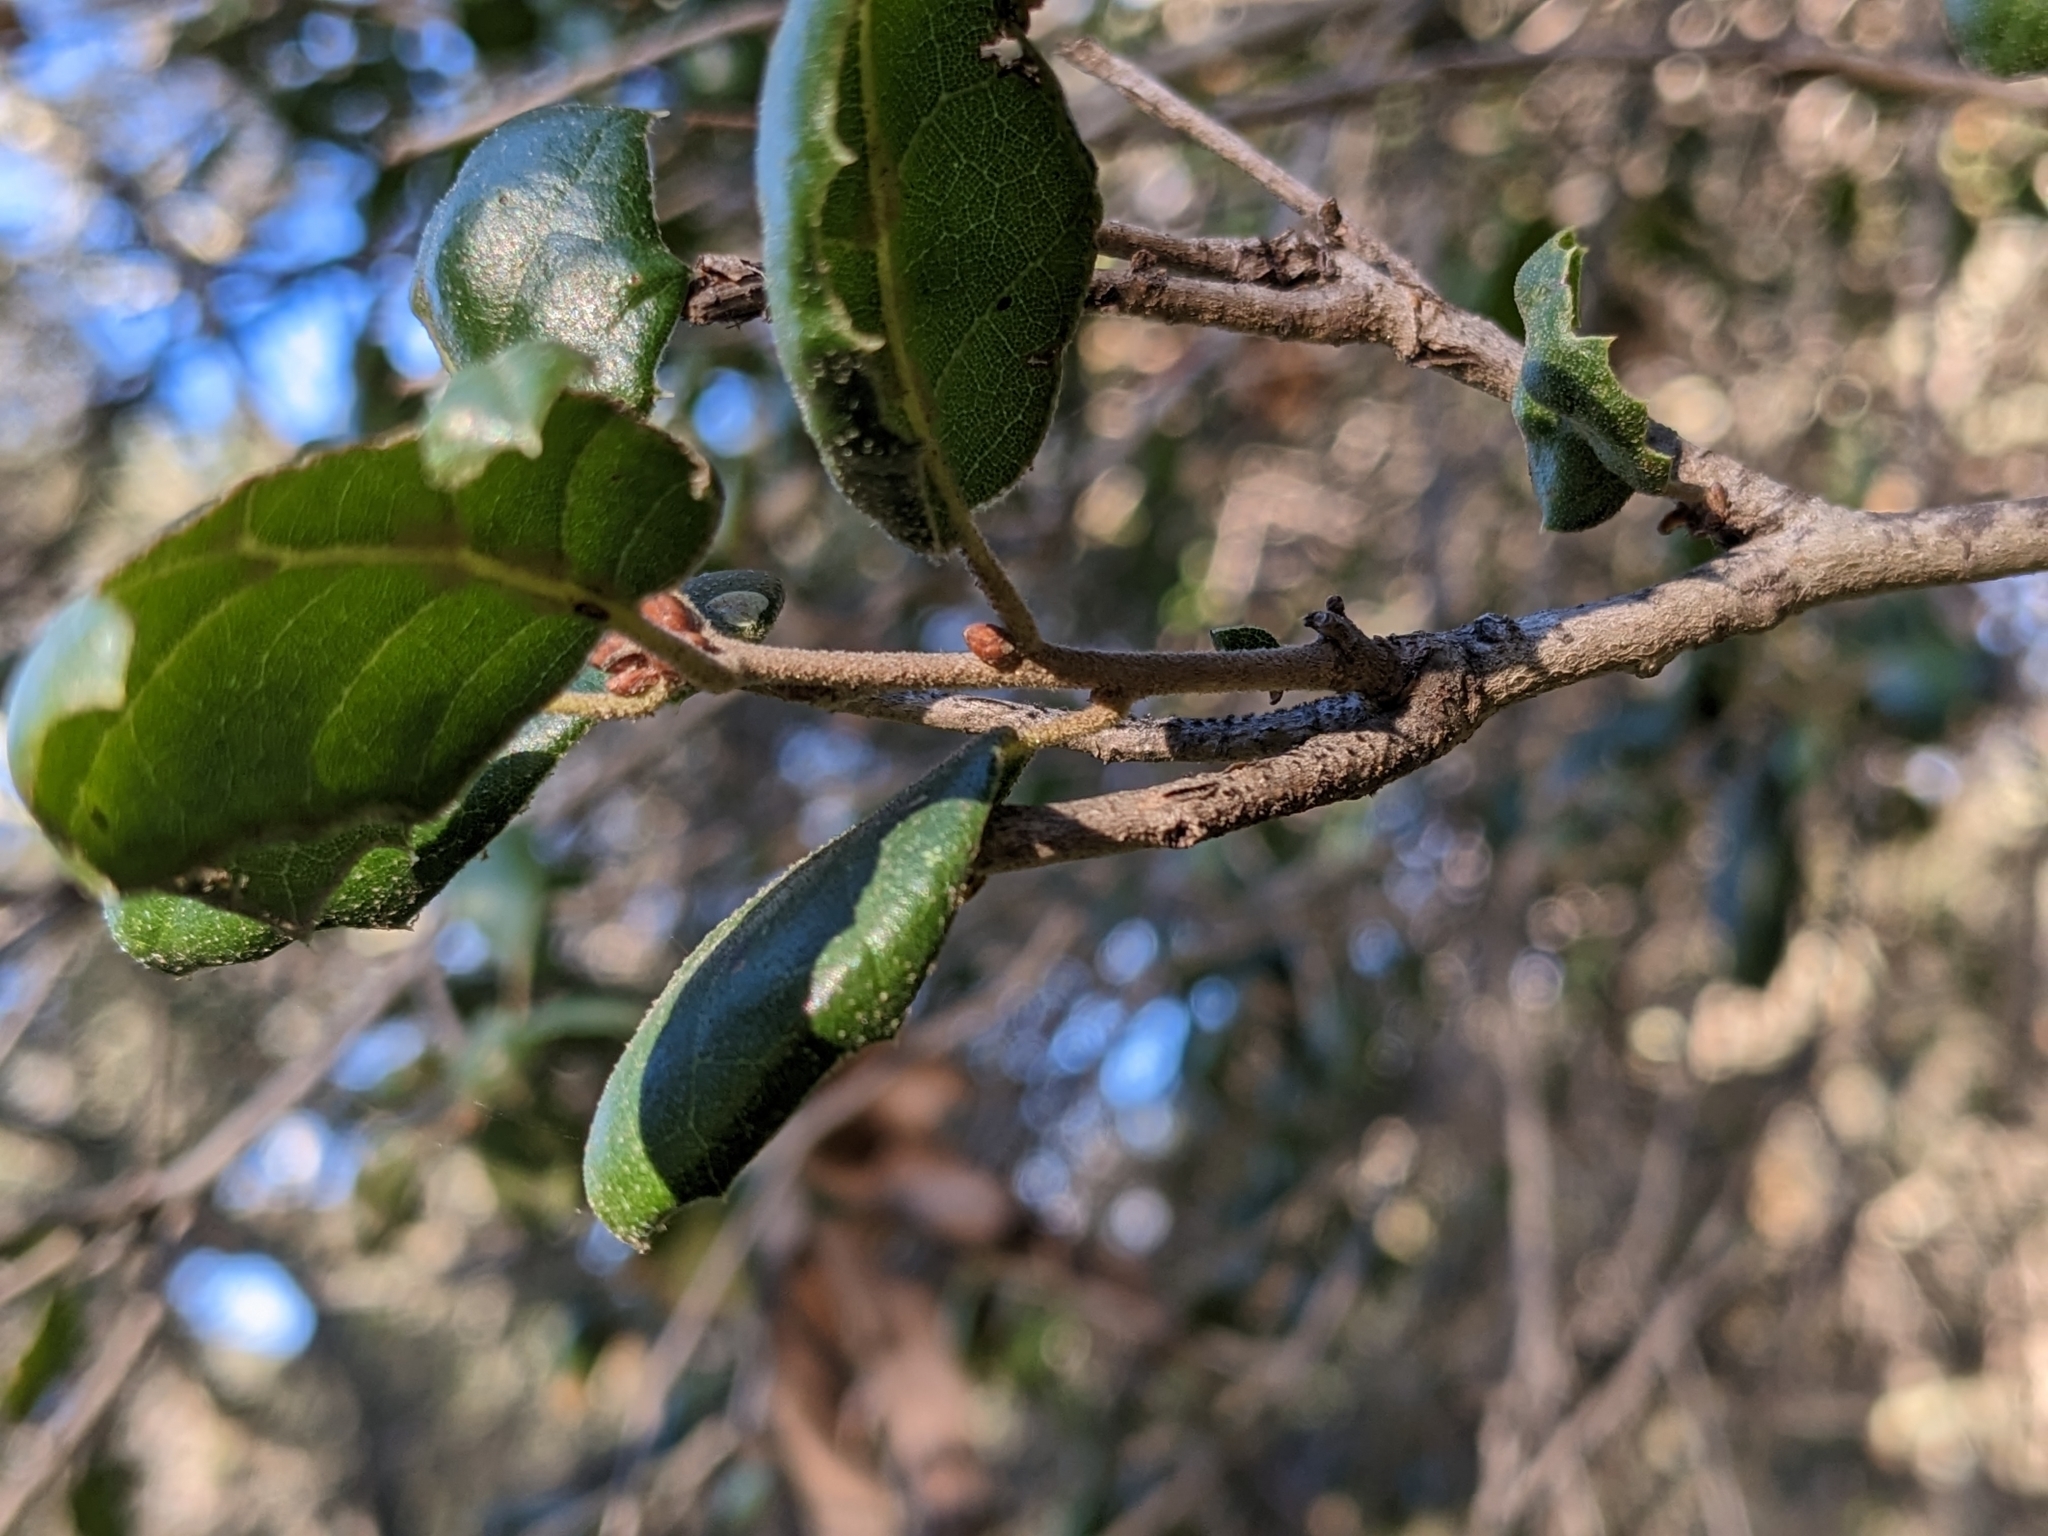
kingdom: Plantae
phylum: Tracheophyta
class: Magnoliopsida
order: Fagales
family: Fagaceae
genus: Quercus
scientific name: Quercus agrifolia
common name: California live oak
